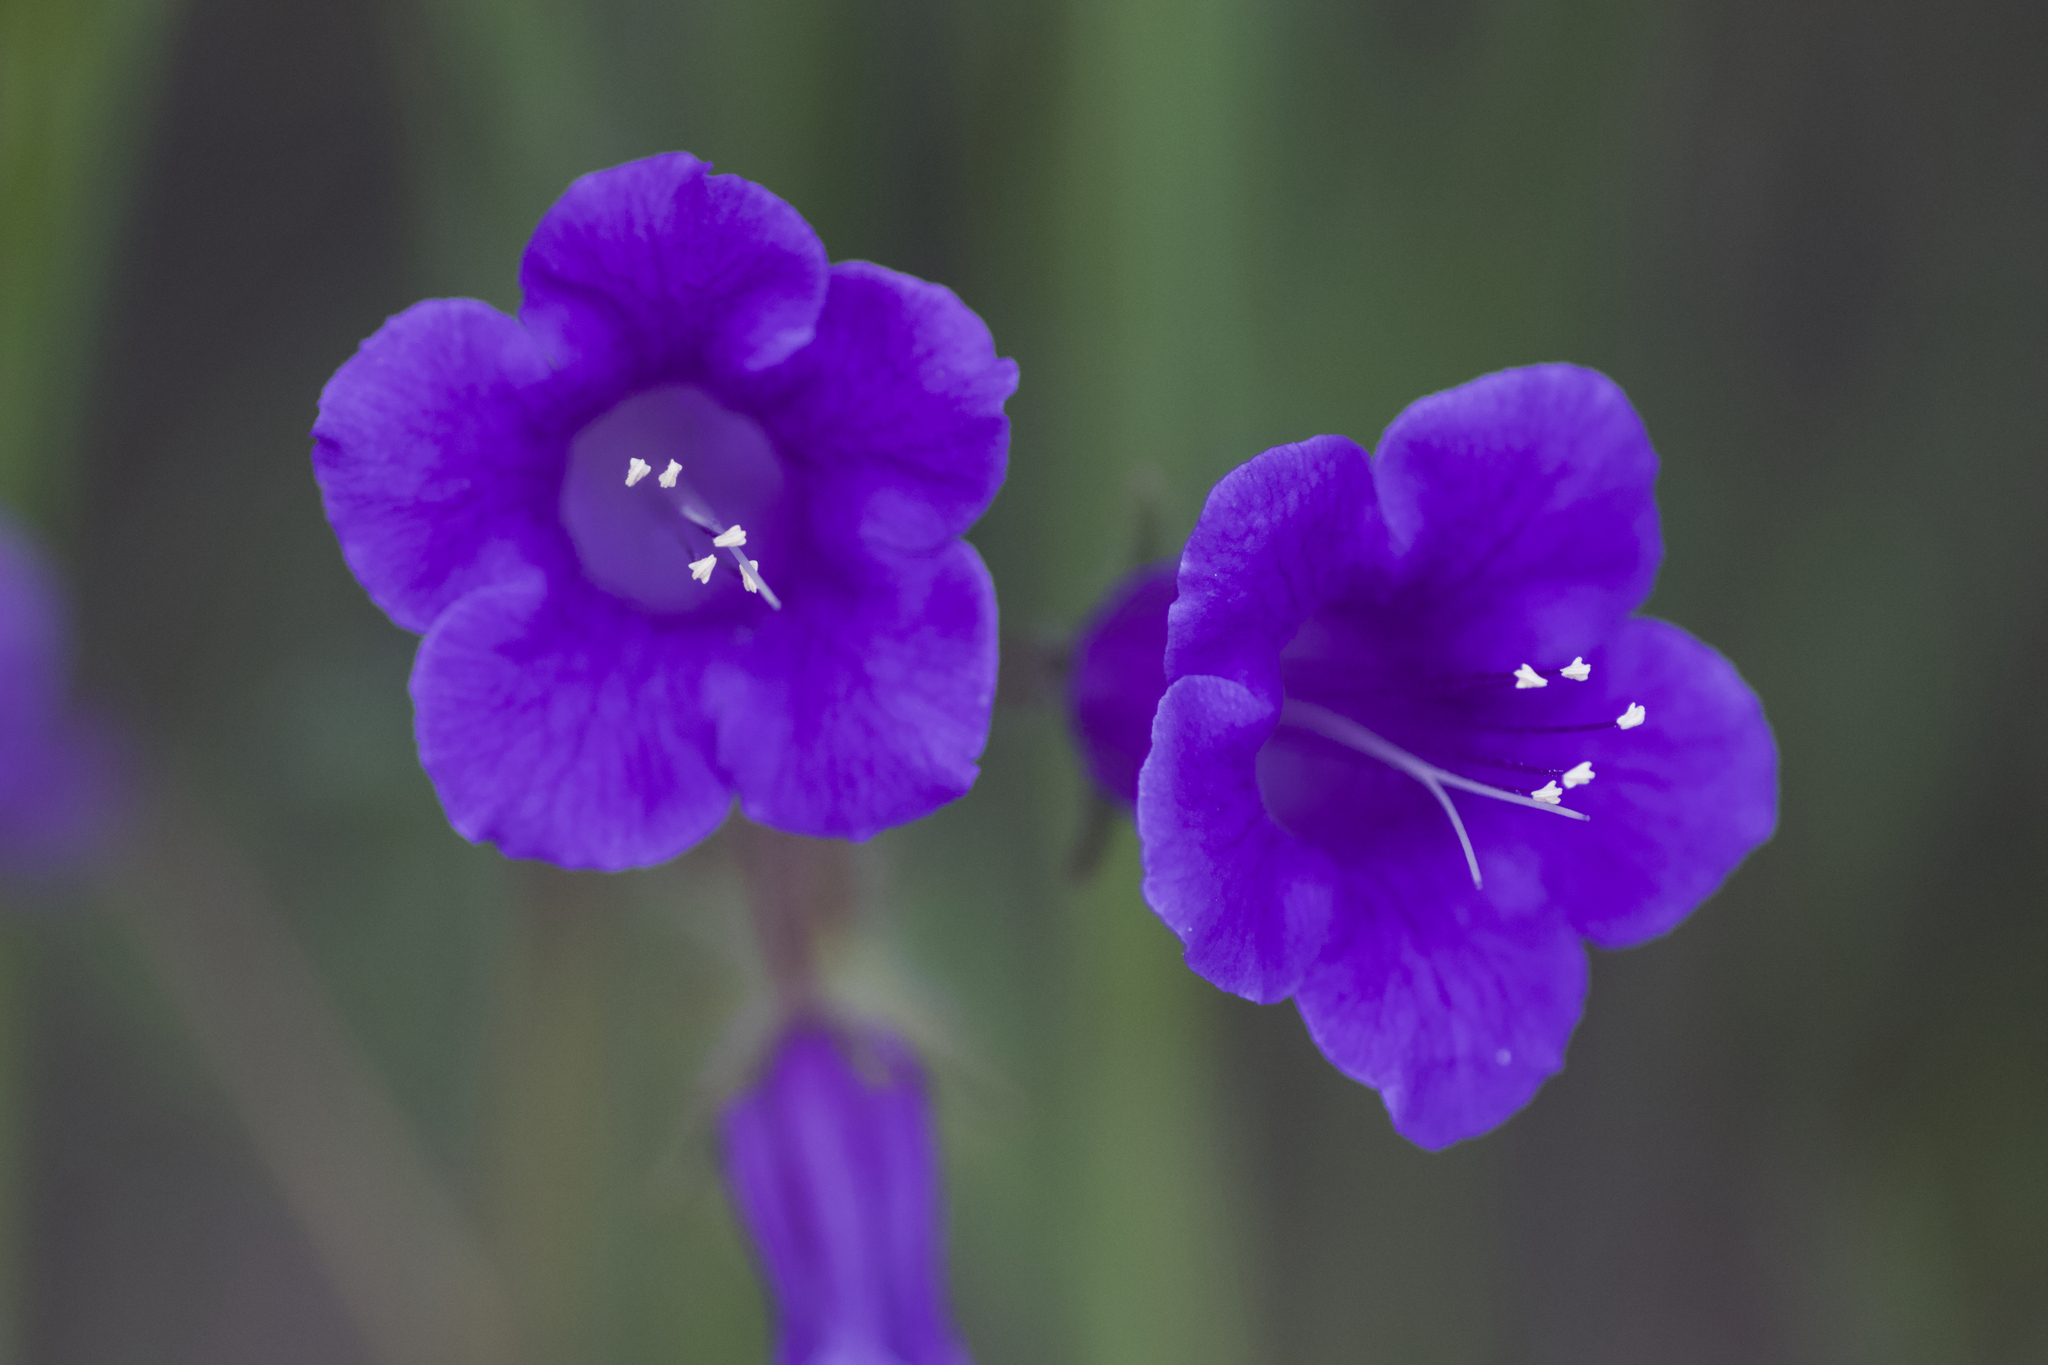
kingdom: Plantae
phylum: Tracheophyta
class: Magnoliopsida
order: Boraginales
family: Hydrophyllaceae
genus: Phacelia
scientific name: Phacelia minor
